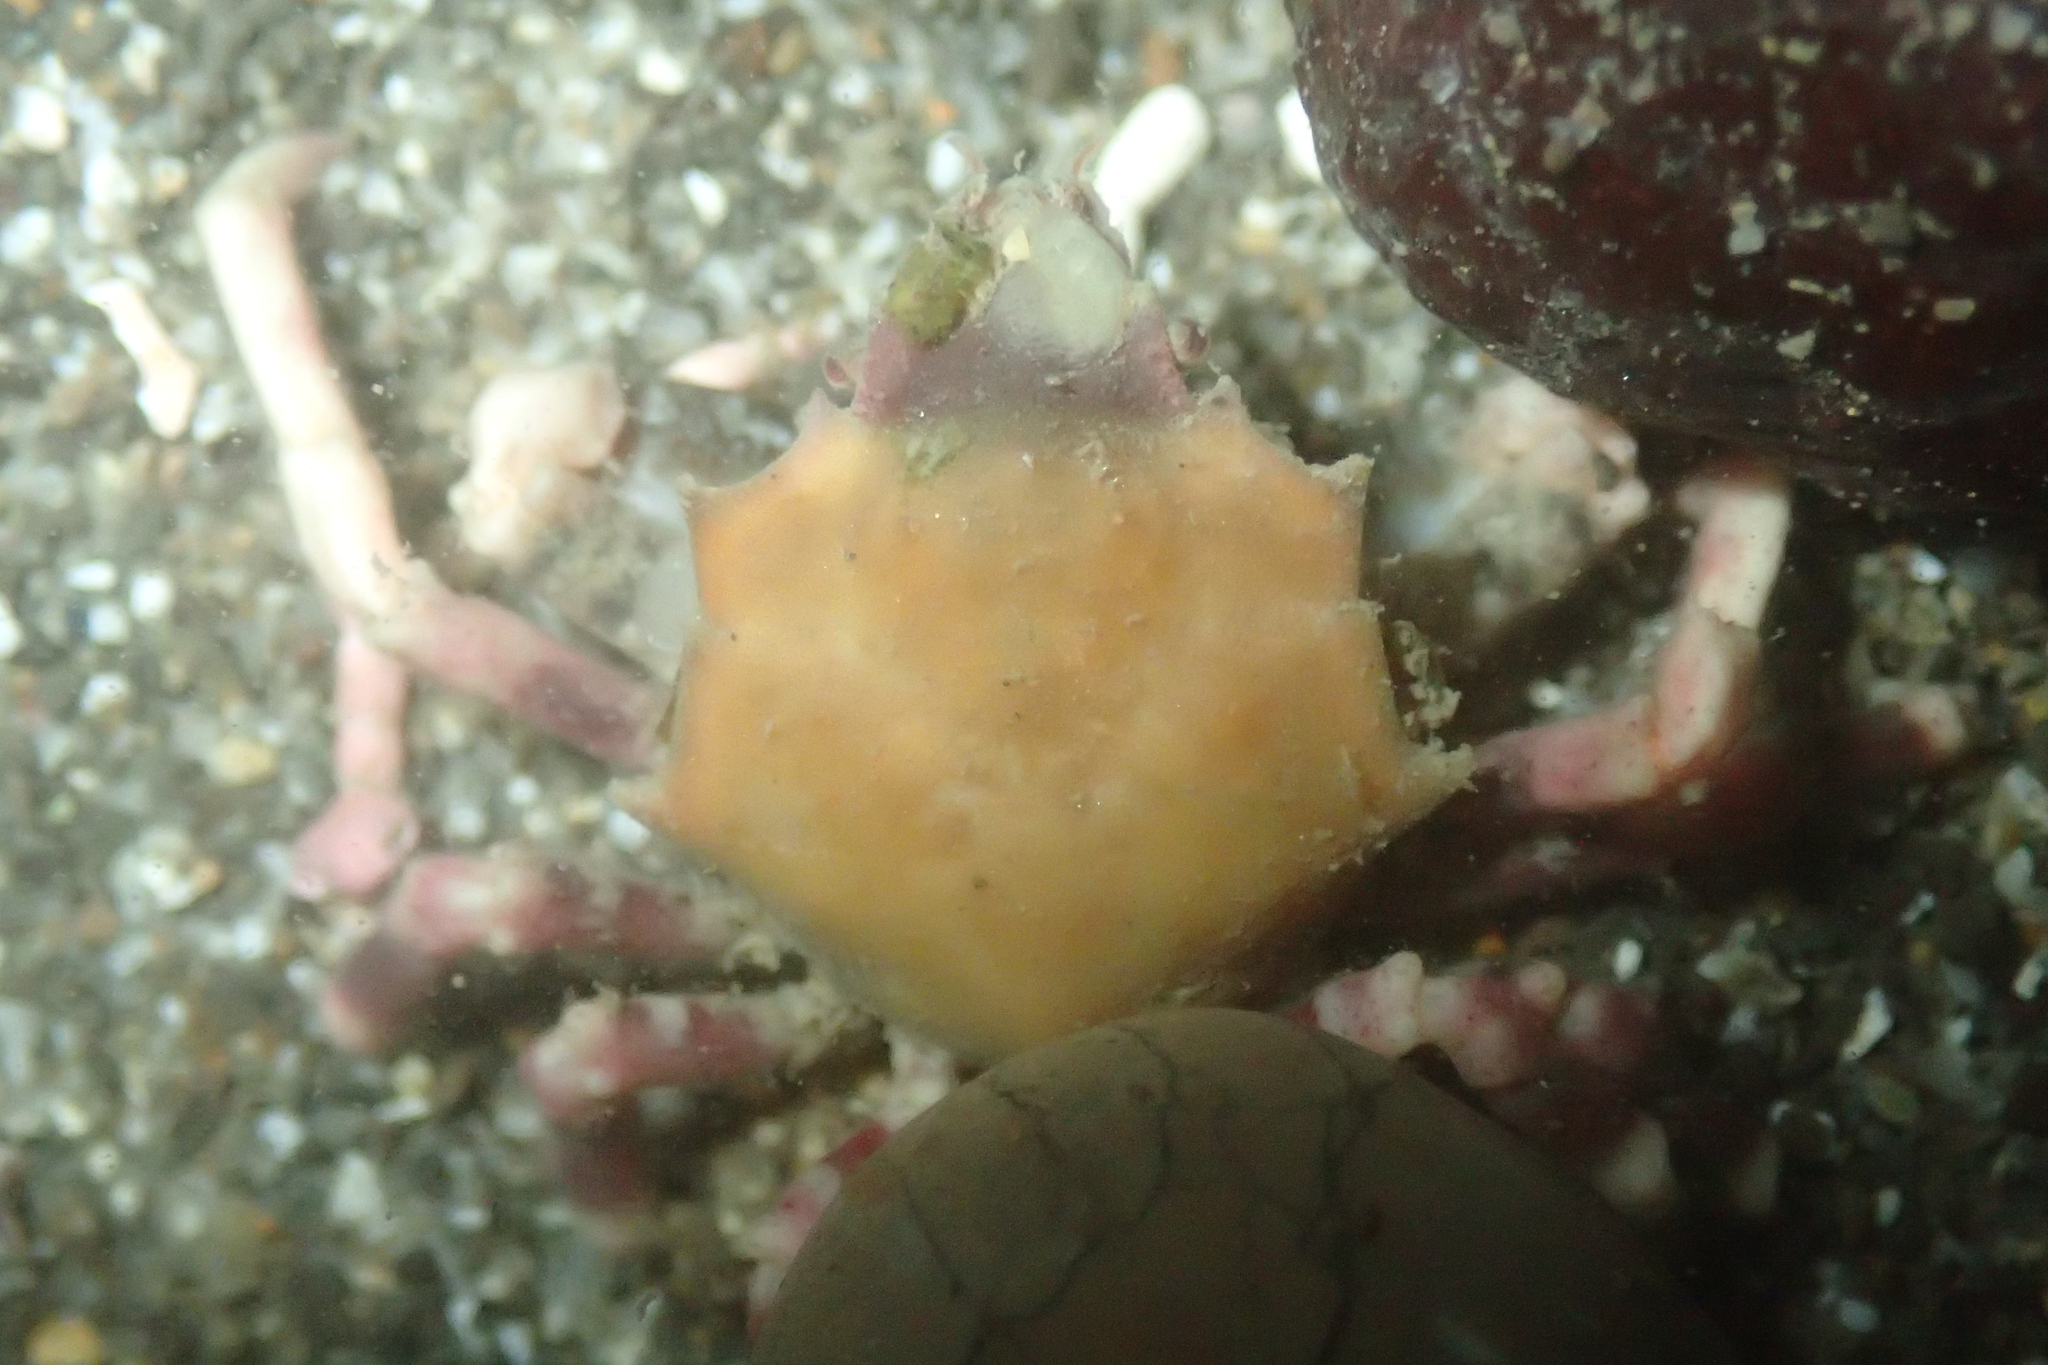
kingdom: Animalia
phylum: Arthropoda
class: Malacostraca
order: Decapoda
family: Epialtidae
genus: Pugettia
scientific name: Pugettia foliata
